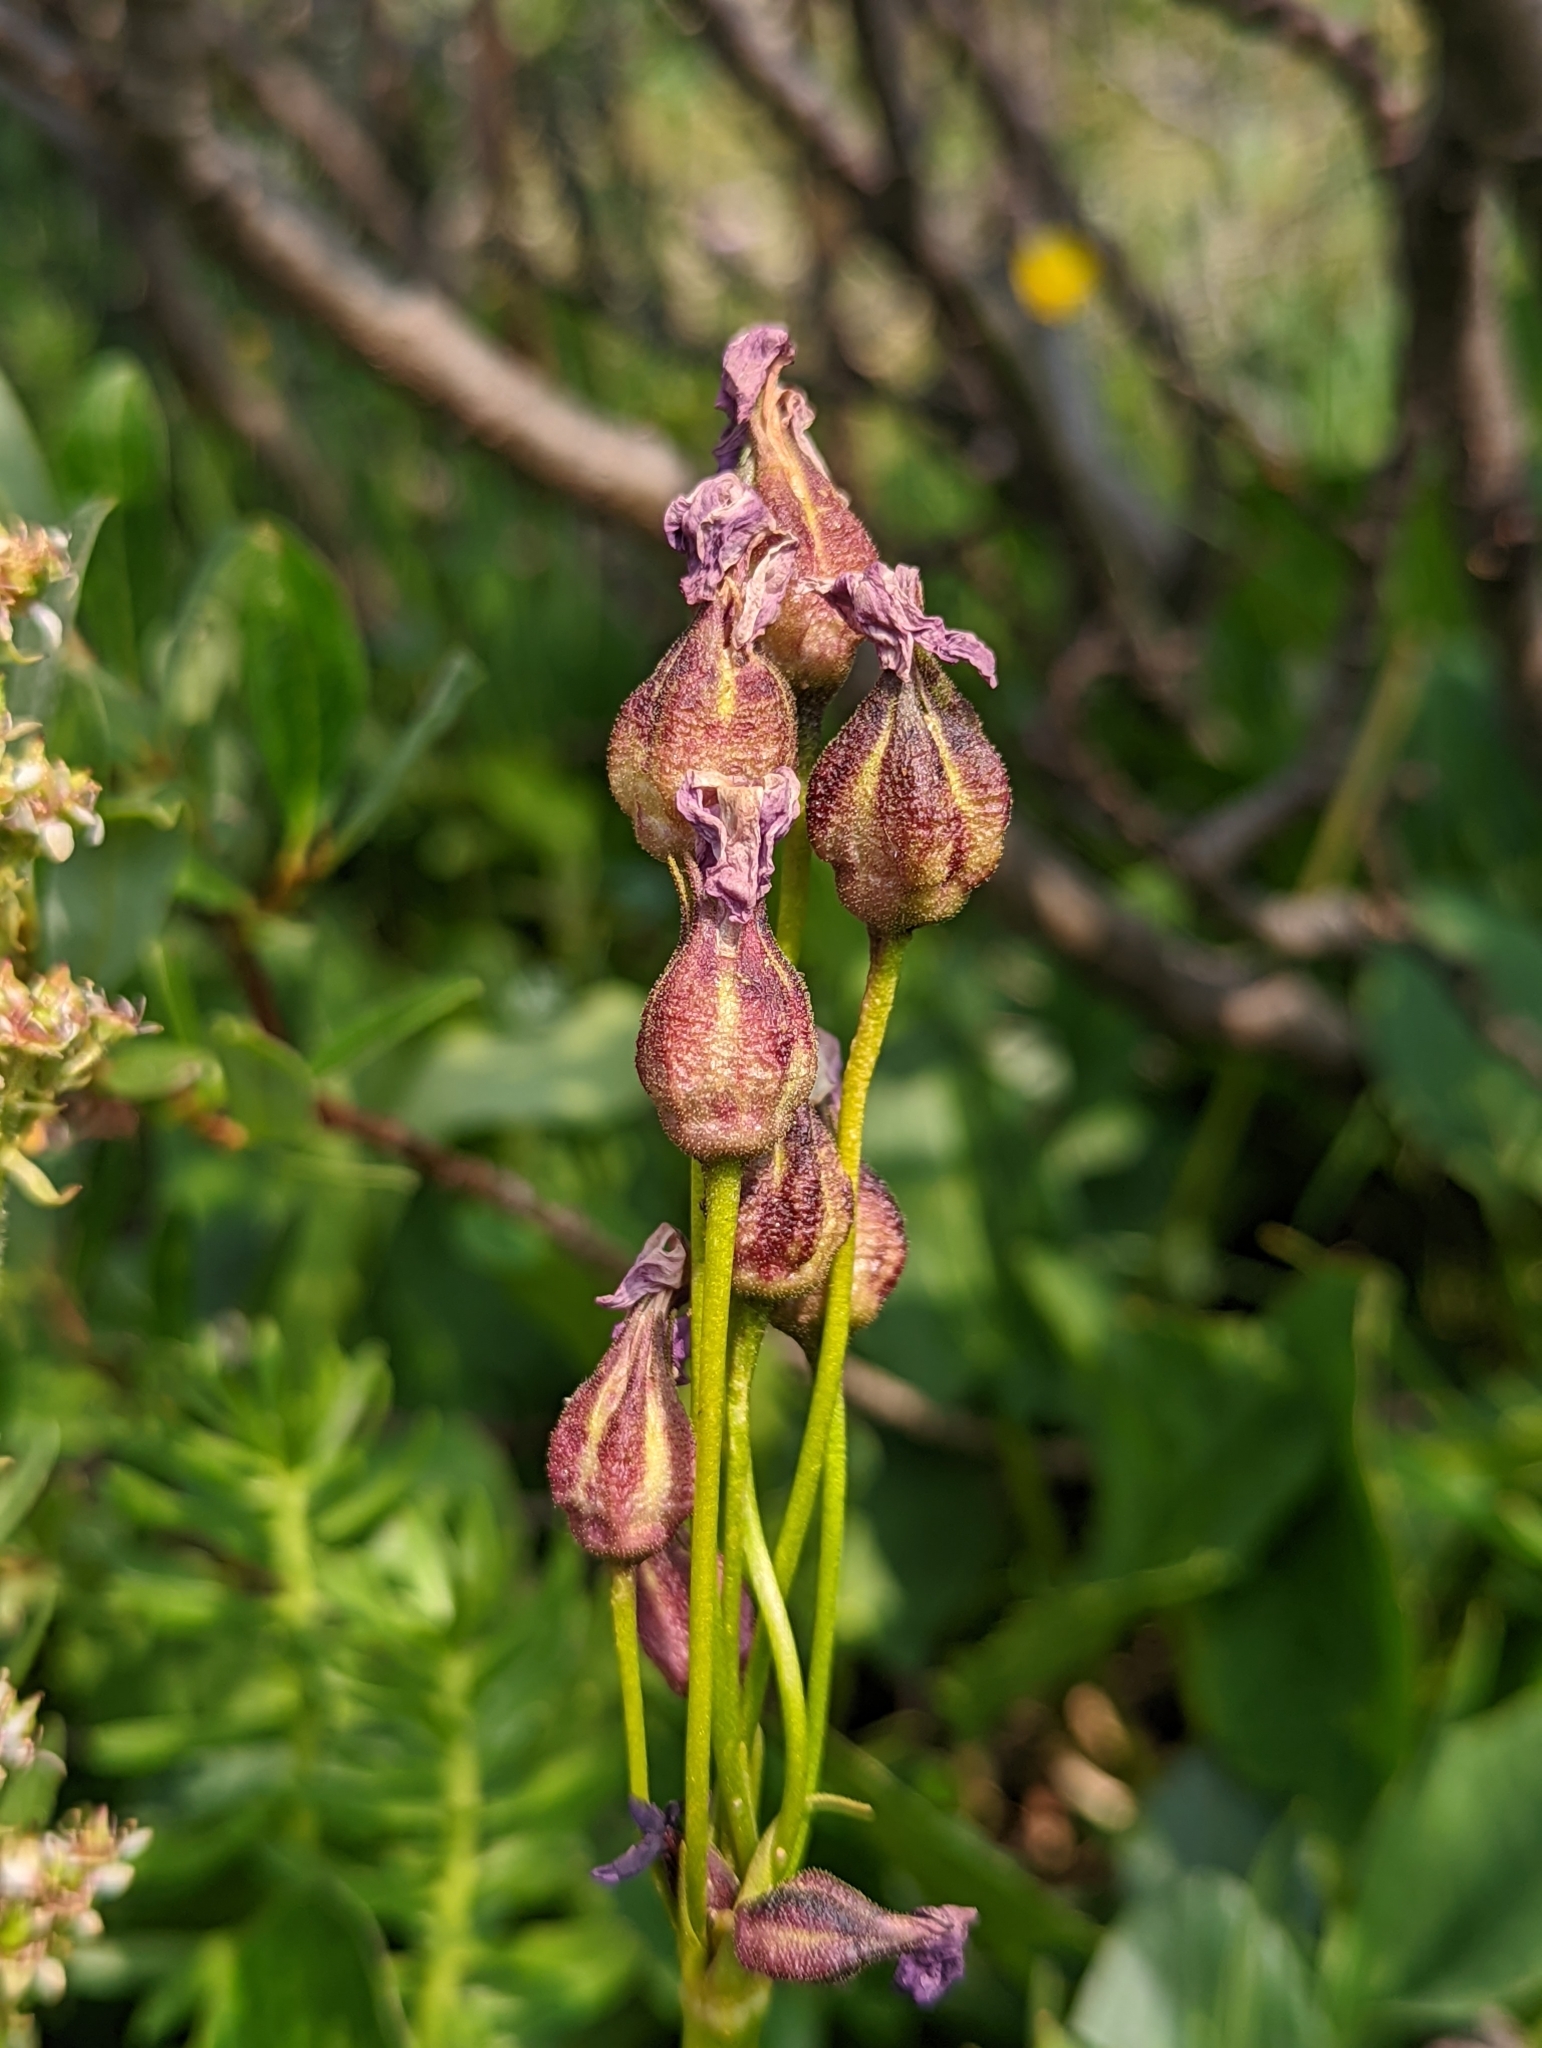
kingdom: Plantae
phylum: Tracheophyta
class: Magnoliopsida
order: Ericales
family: Primulaceae
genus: Primula
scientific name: Primula parryi
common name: Parry's primrose
